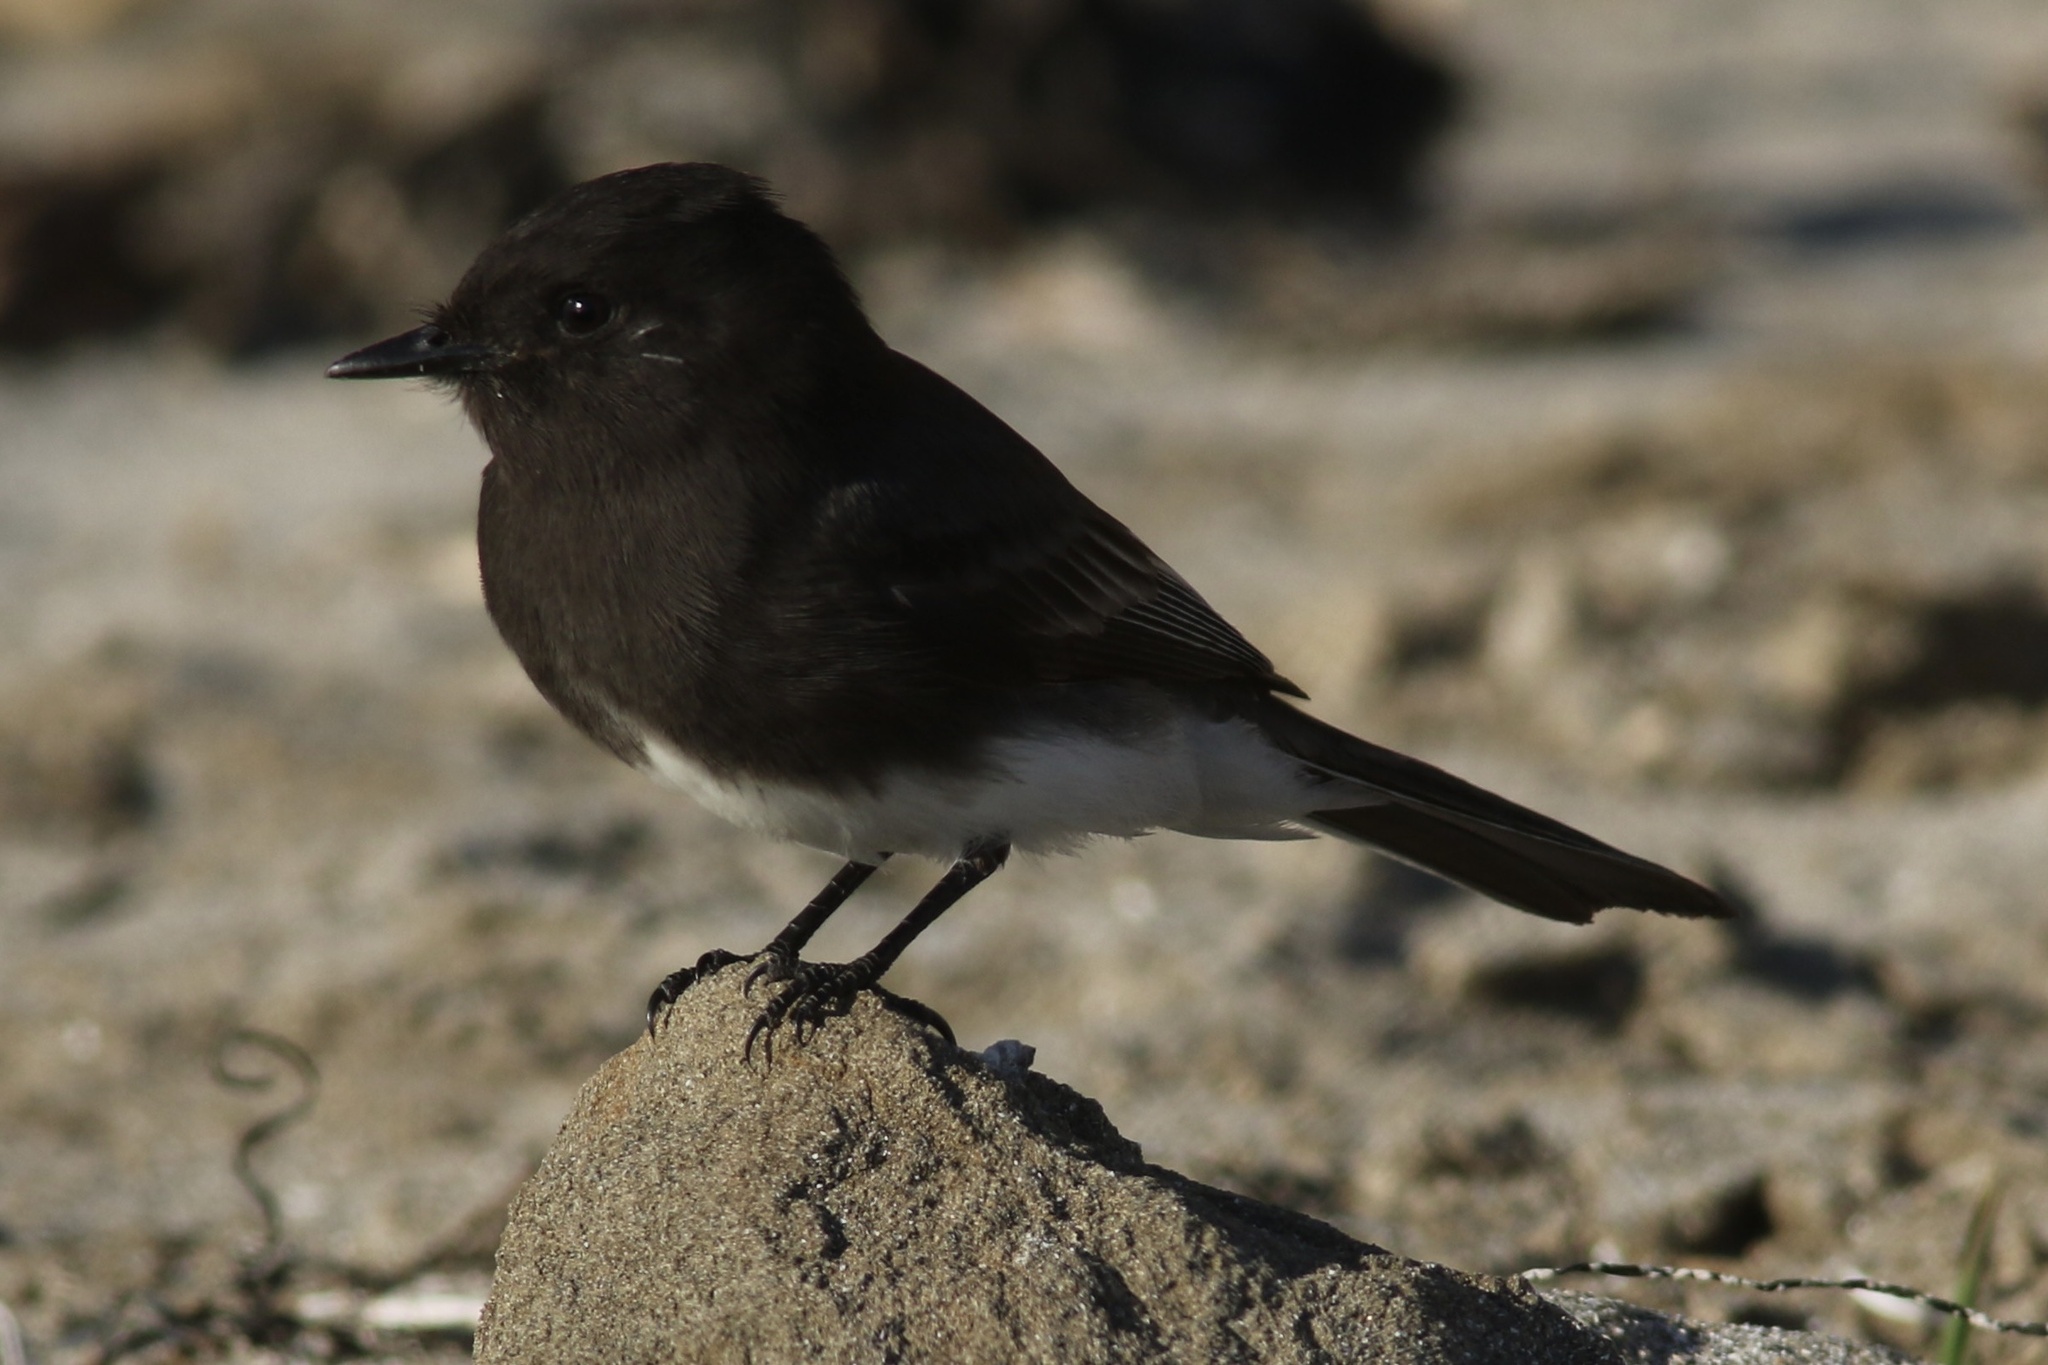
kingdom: Animalia
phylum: Chordata
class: Aves
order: Passeriformes
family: Tyrannidae
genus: Sayornis
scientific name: Sayornis nigricans
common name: Black phoebe
